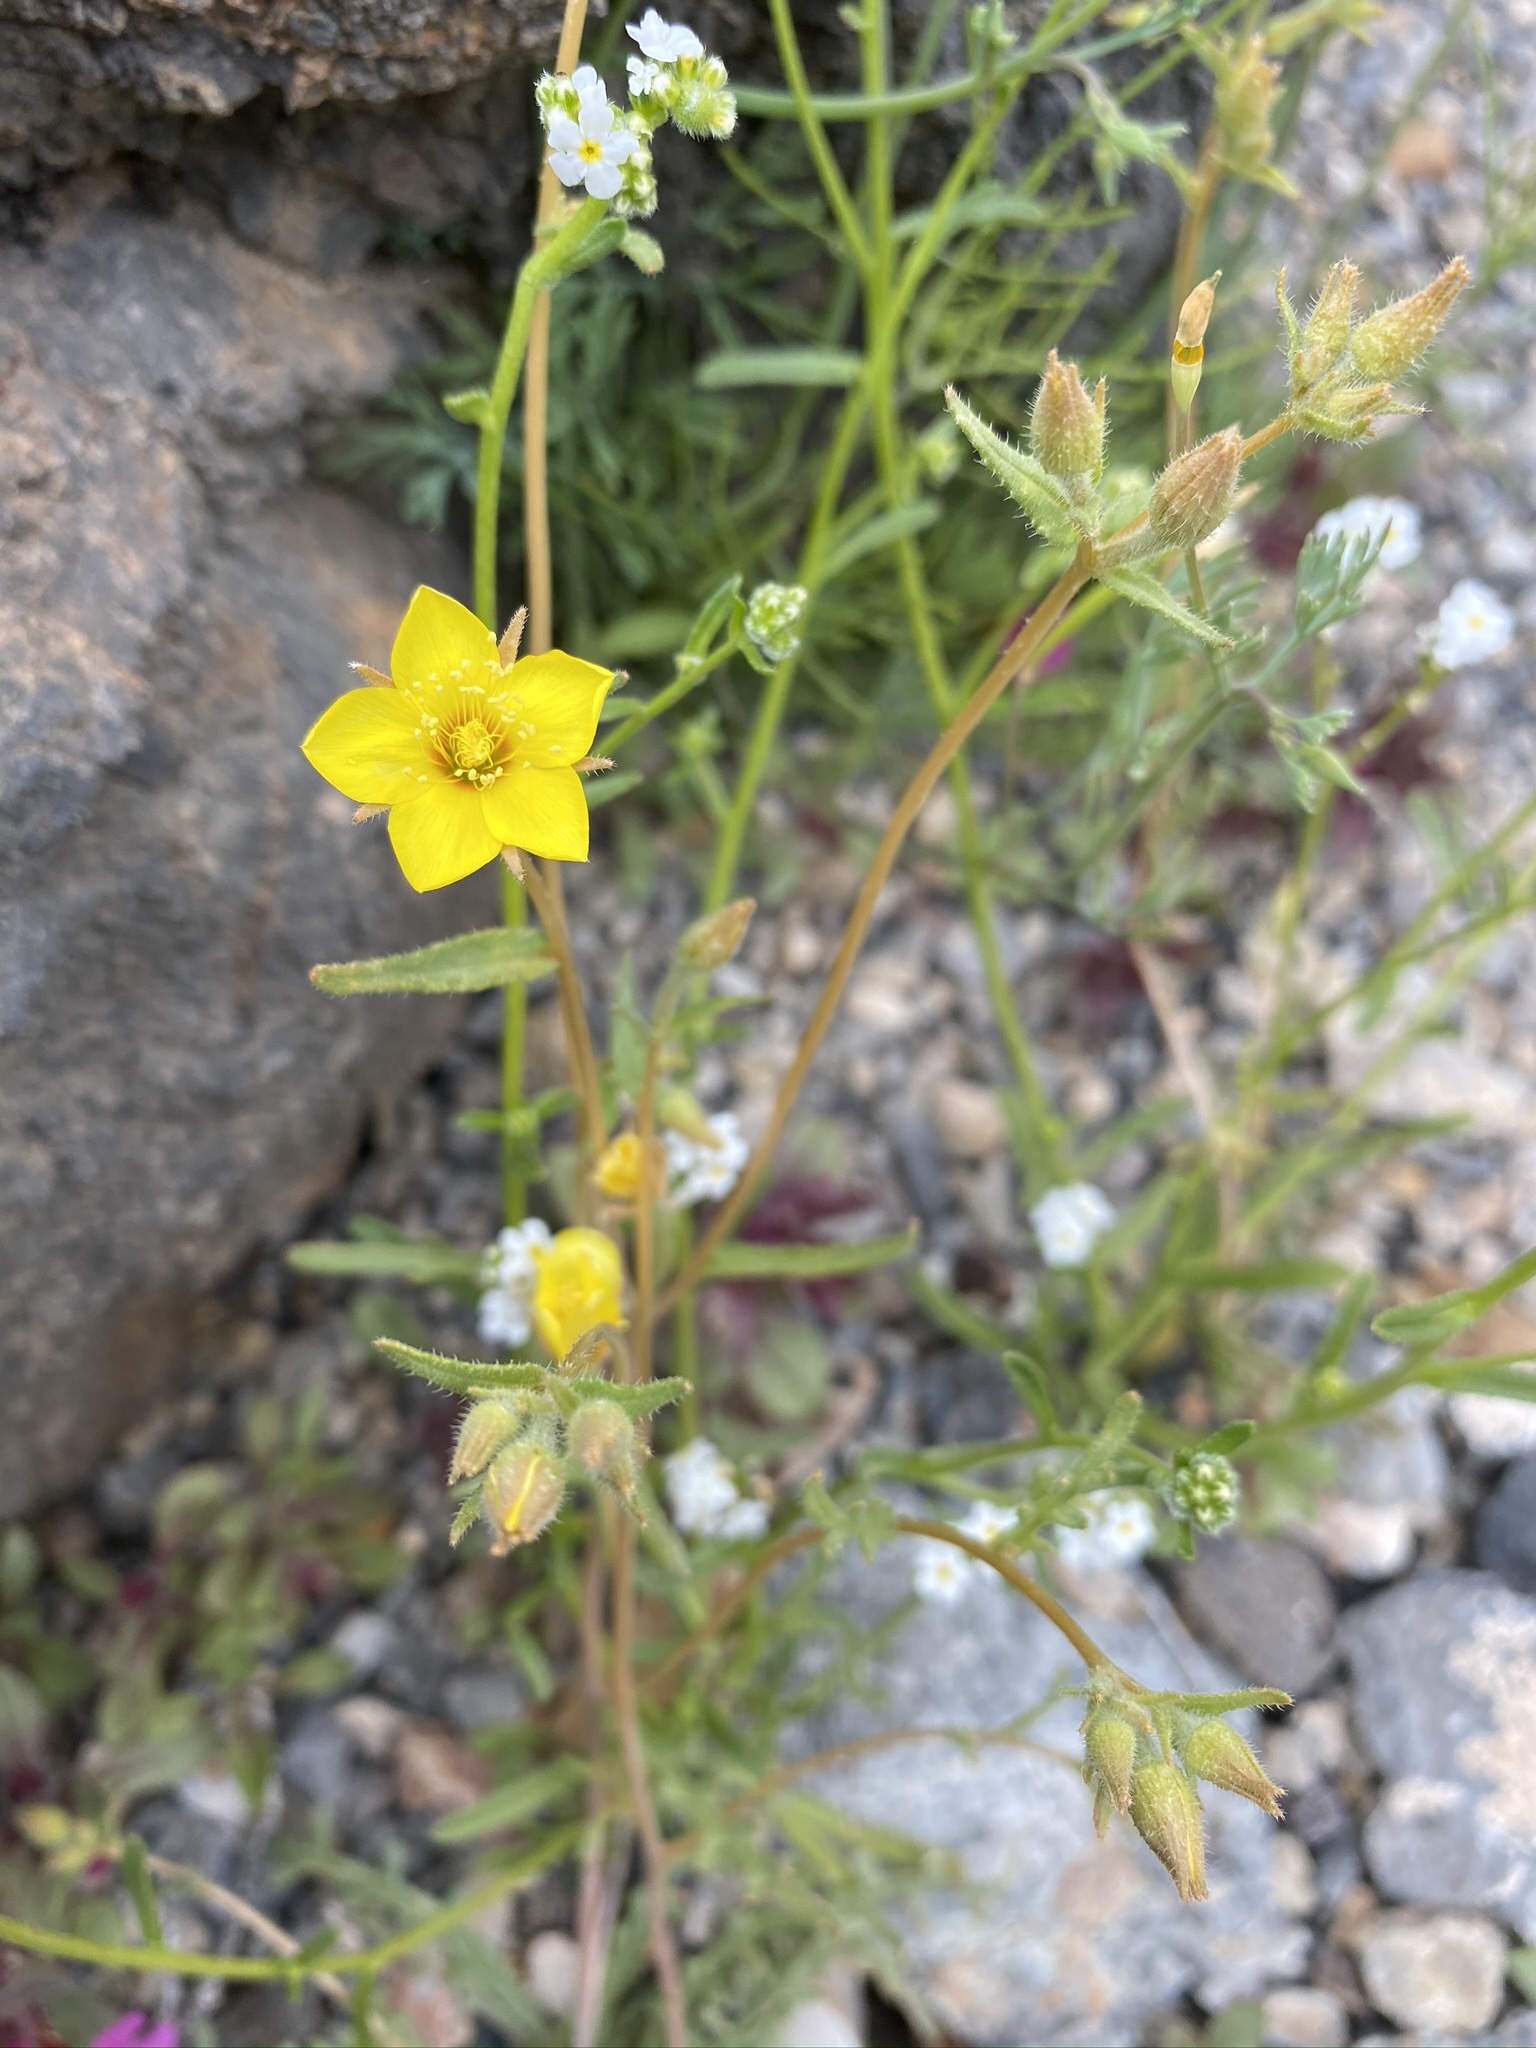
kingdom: Plantae
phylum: Tracheophyta
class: Magnoliopsida
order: Cornales
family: Loasaceae
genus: Mentzelia
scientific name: Mentzelia nitens
